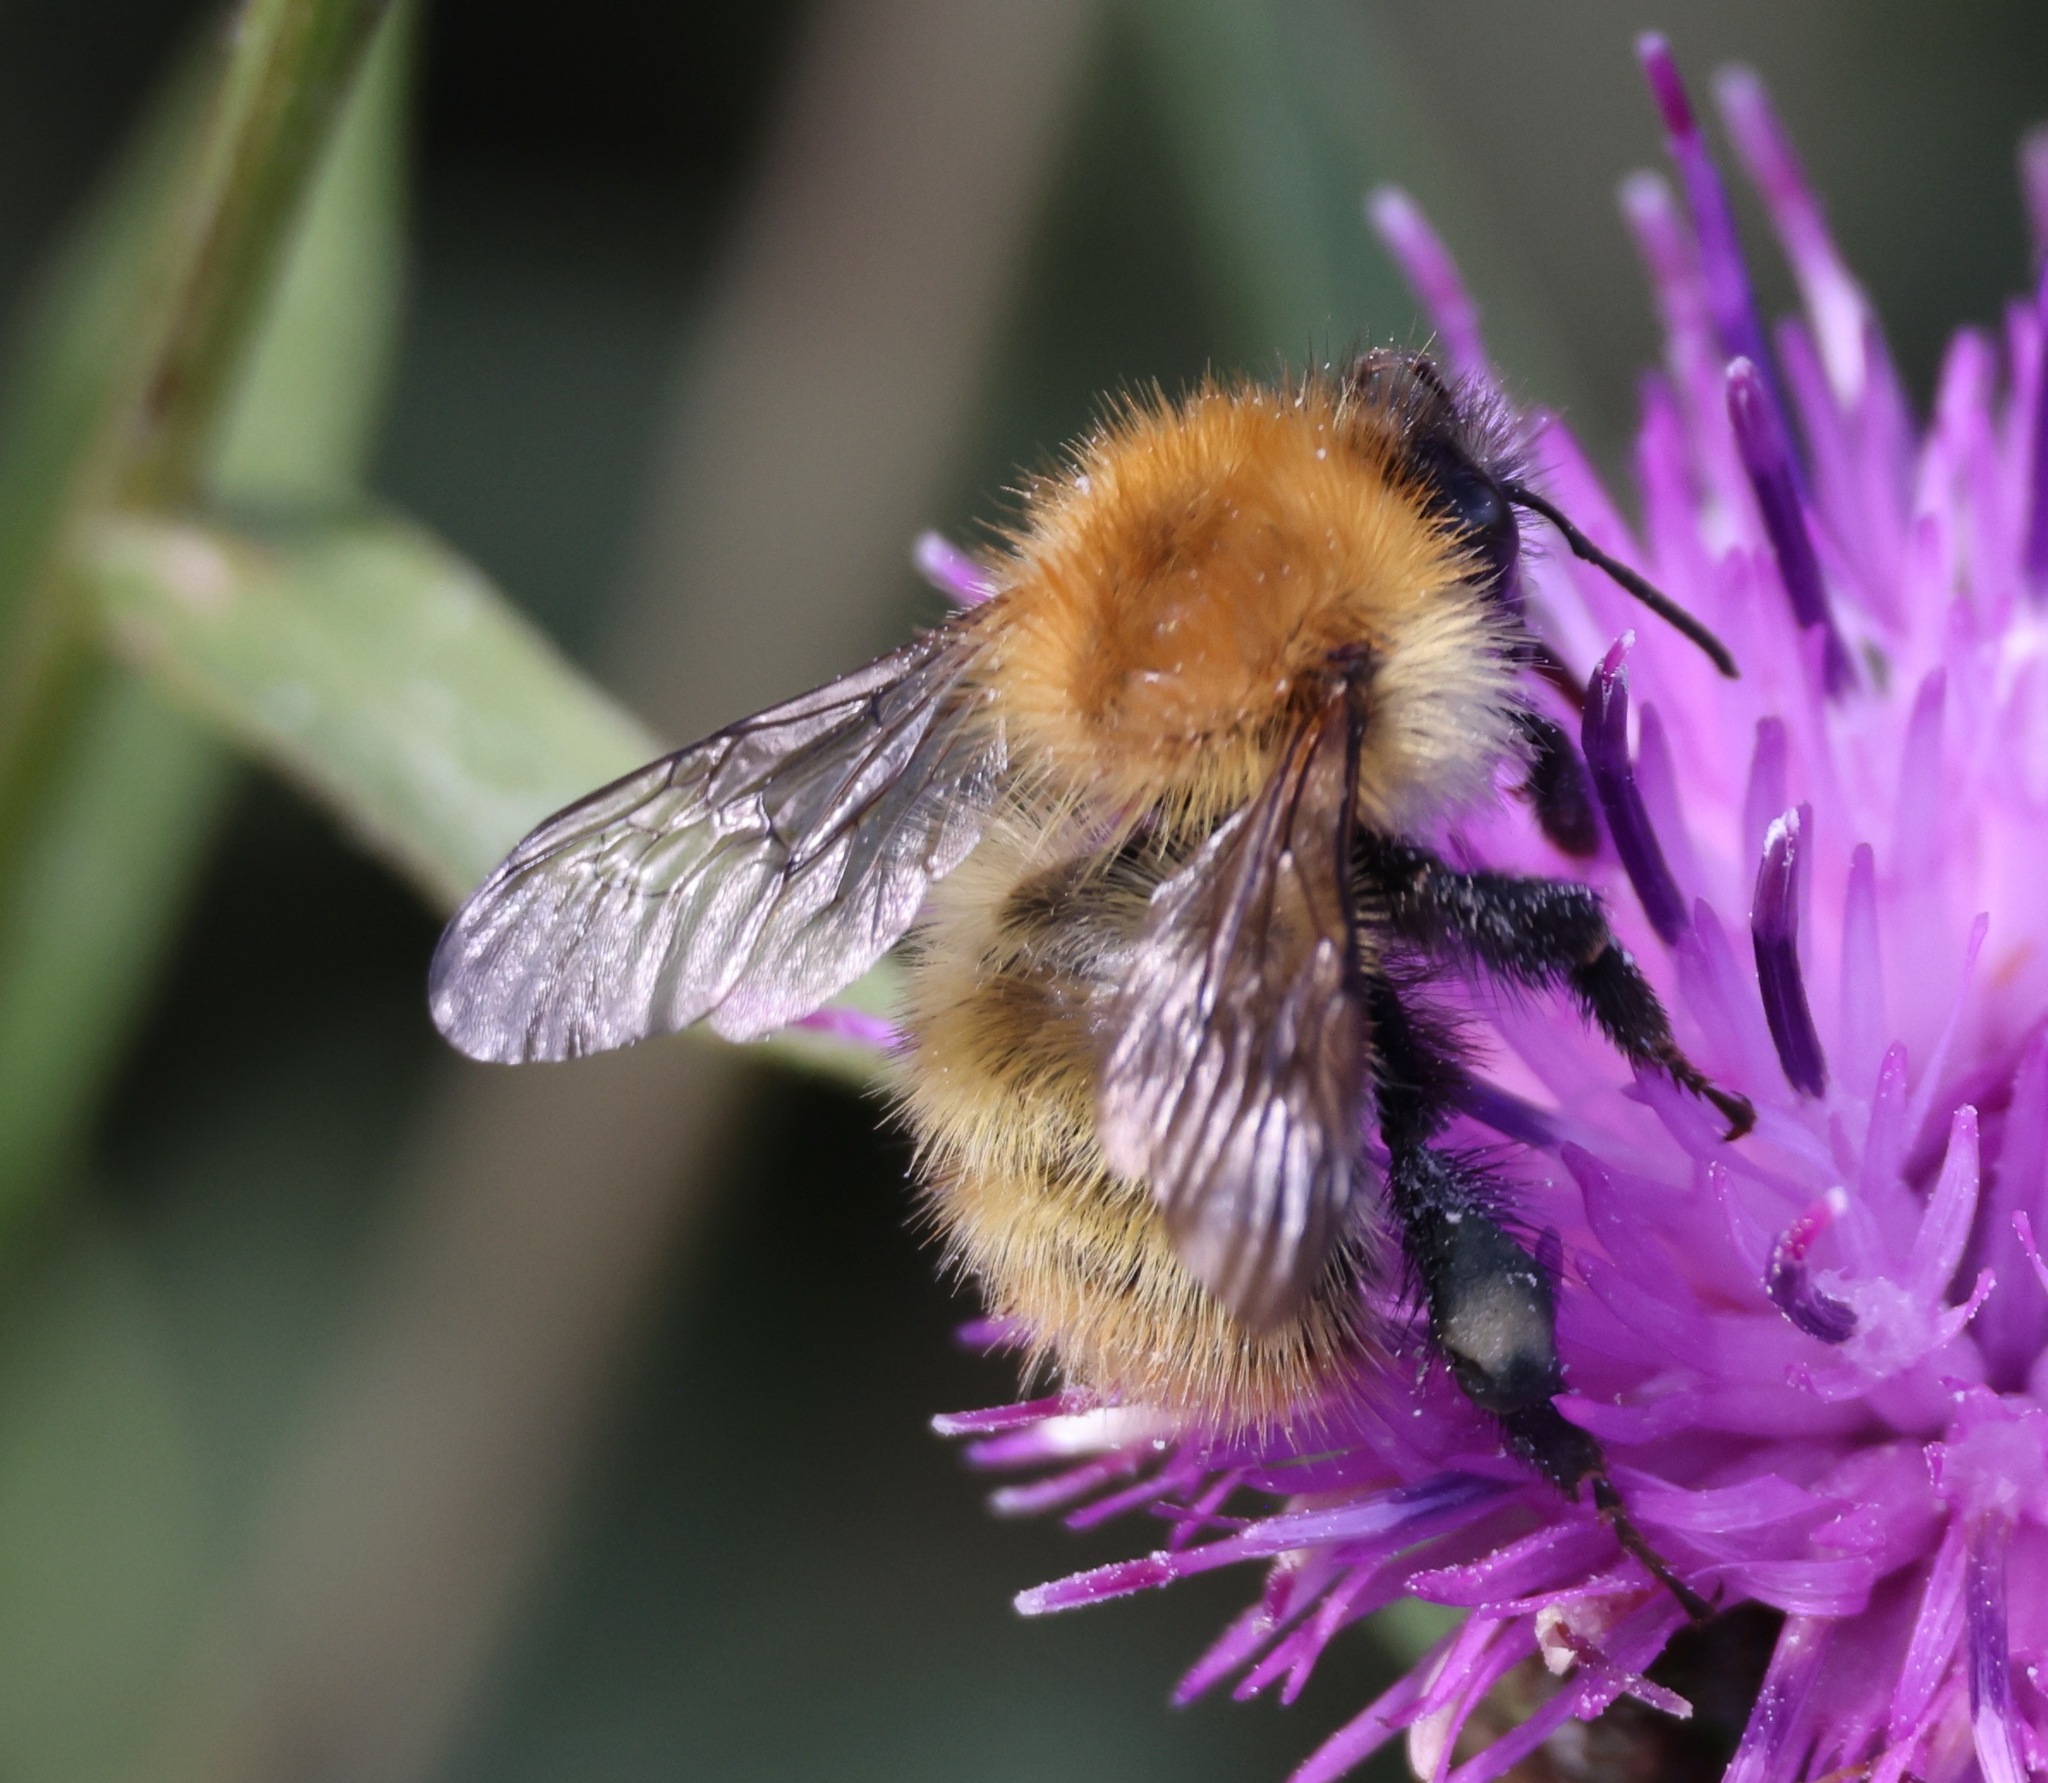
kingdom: Animalia
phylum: Arthropoda
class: Insecta
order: Hymenoptera
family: Apidae
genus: Bombus
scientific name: Bombus pascuorum
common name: Common carder bee
